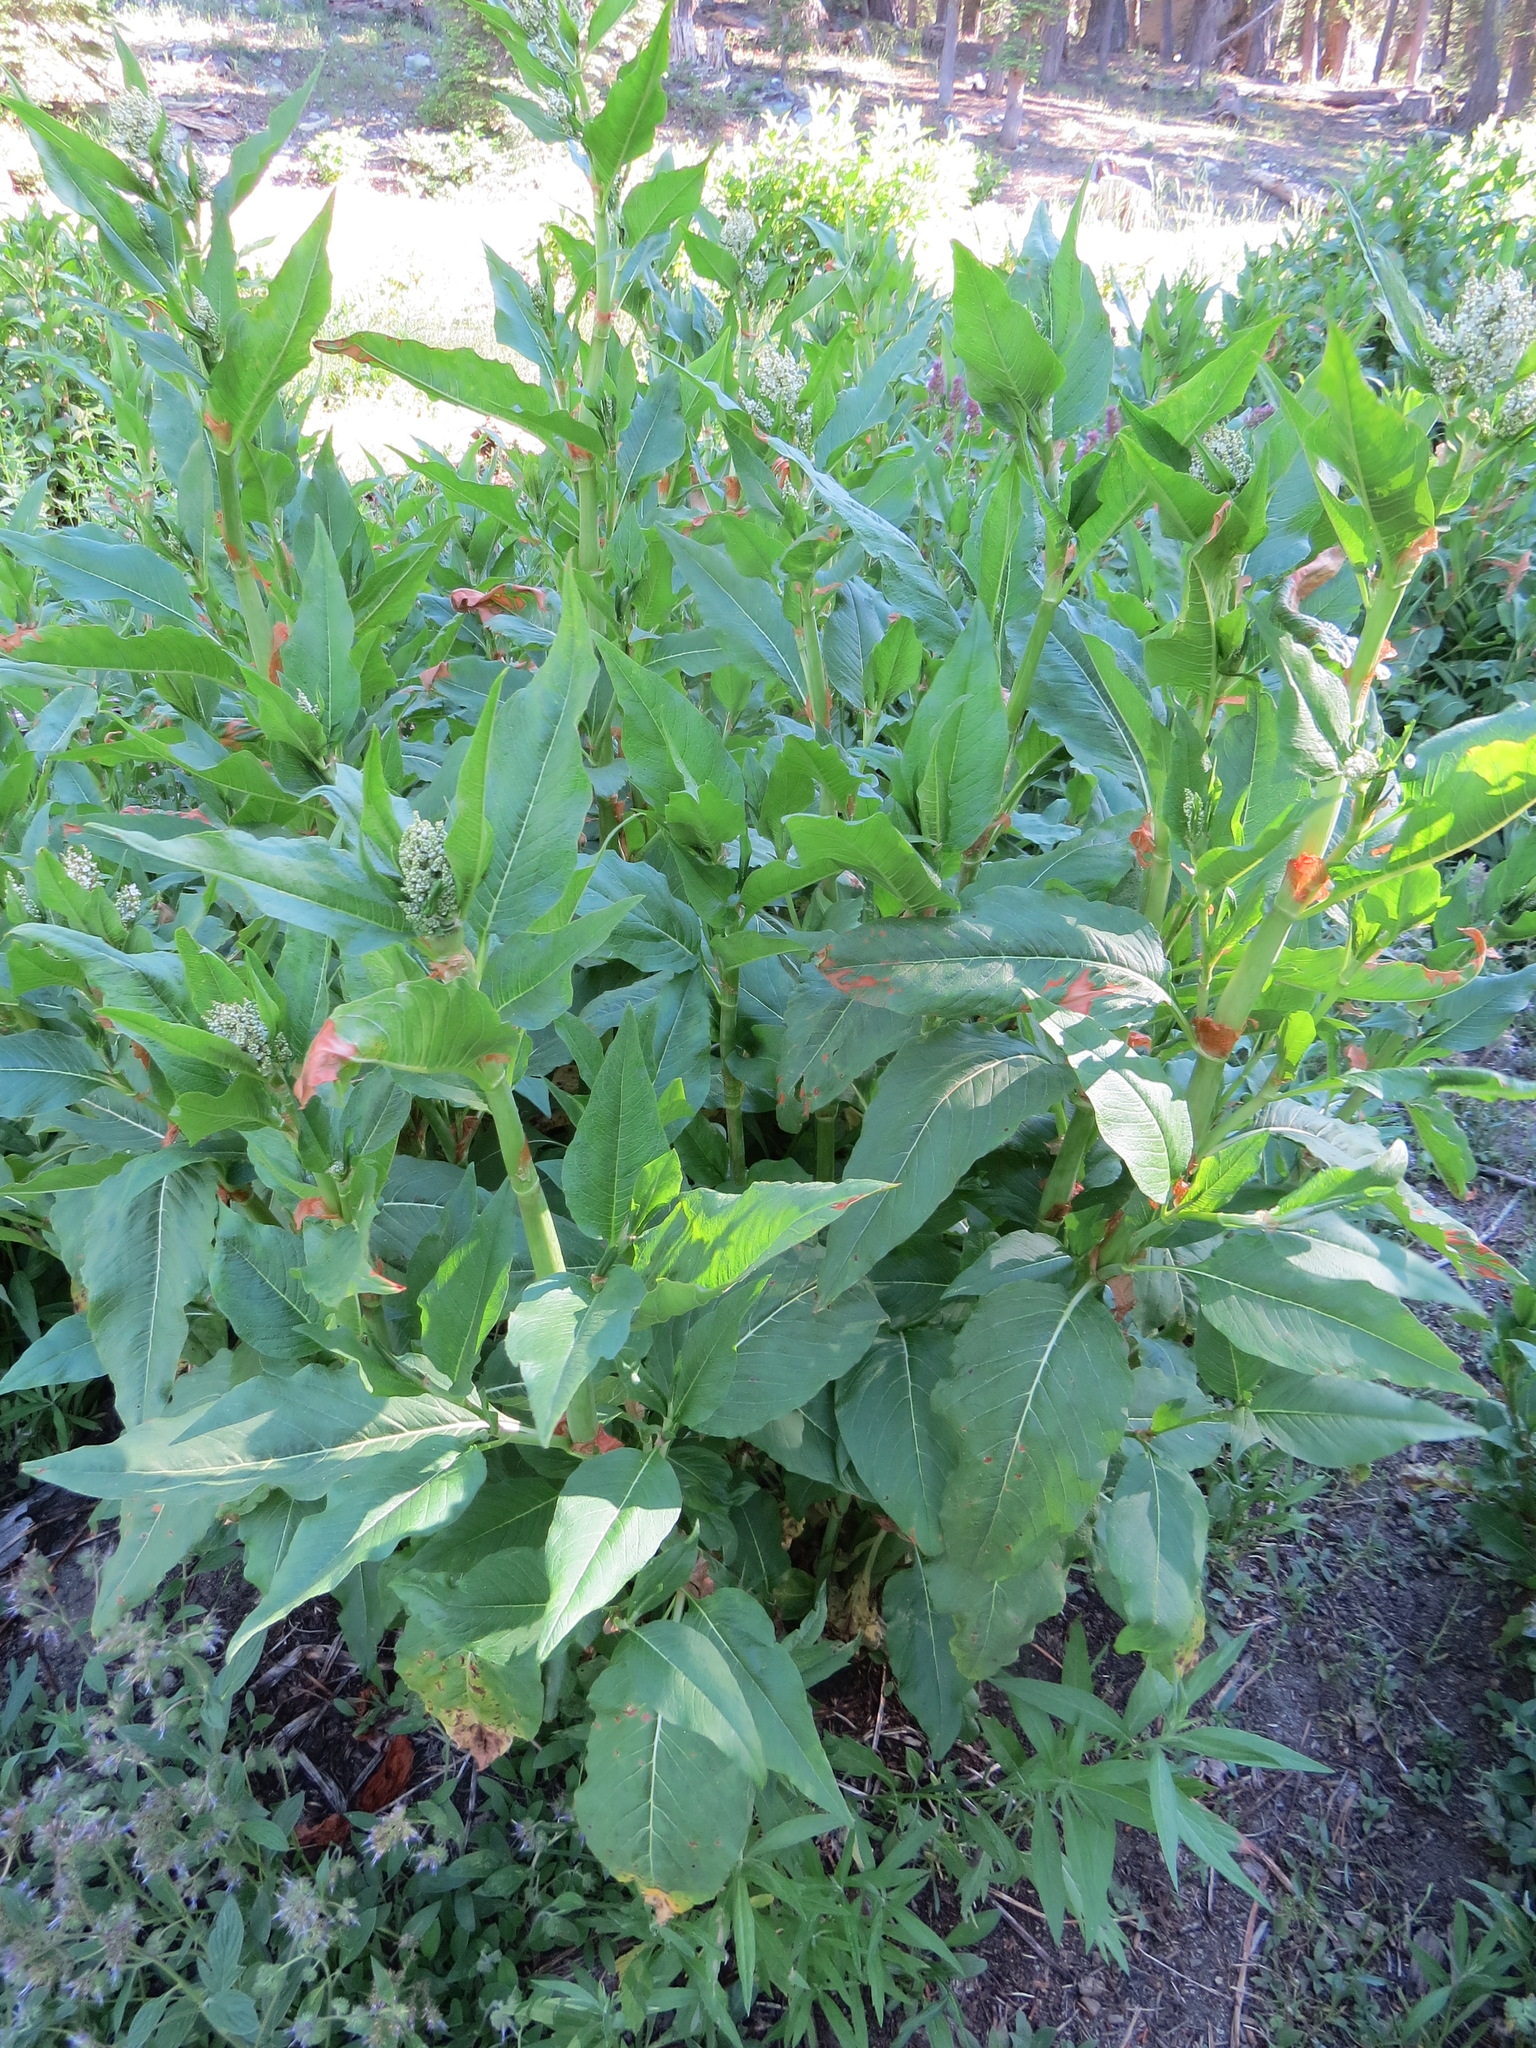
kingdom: Plantae
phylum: Tracheophyta
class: Magnoliopsida
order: Caryophyllales
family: Polygonaceae
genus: Koenigia
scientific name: Koenigia phytolaccifolia
